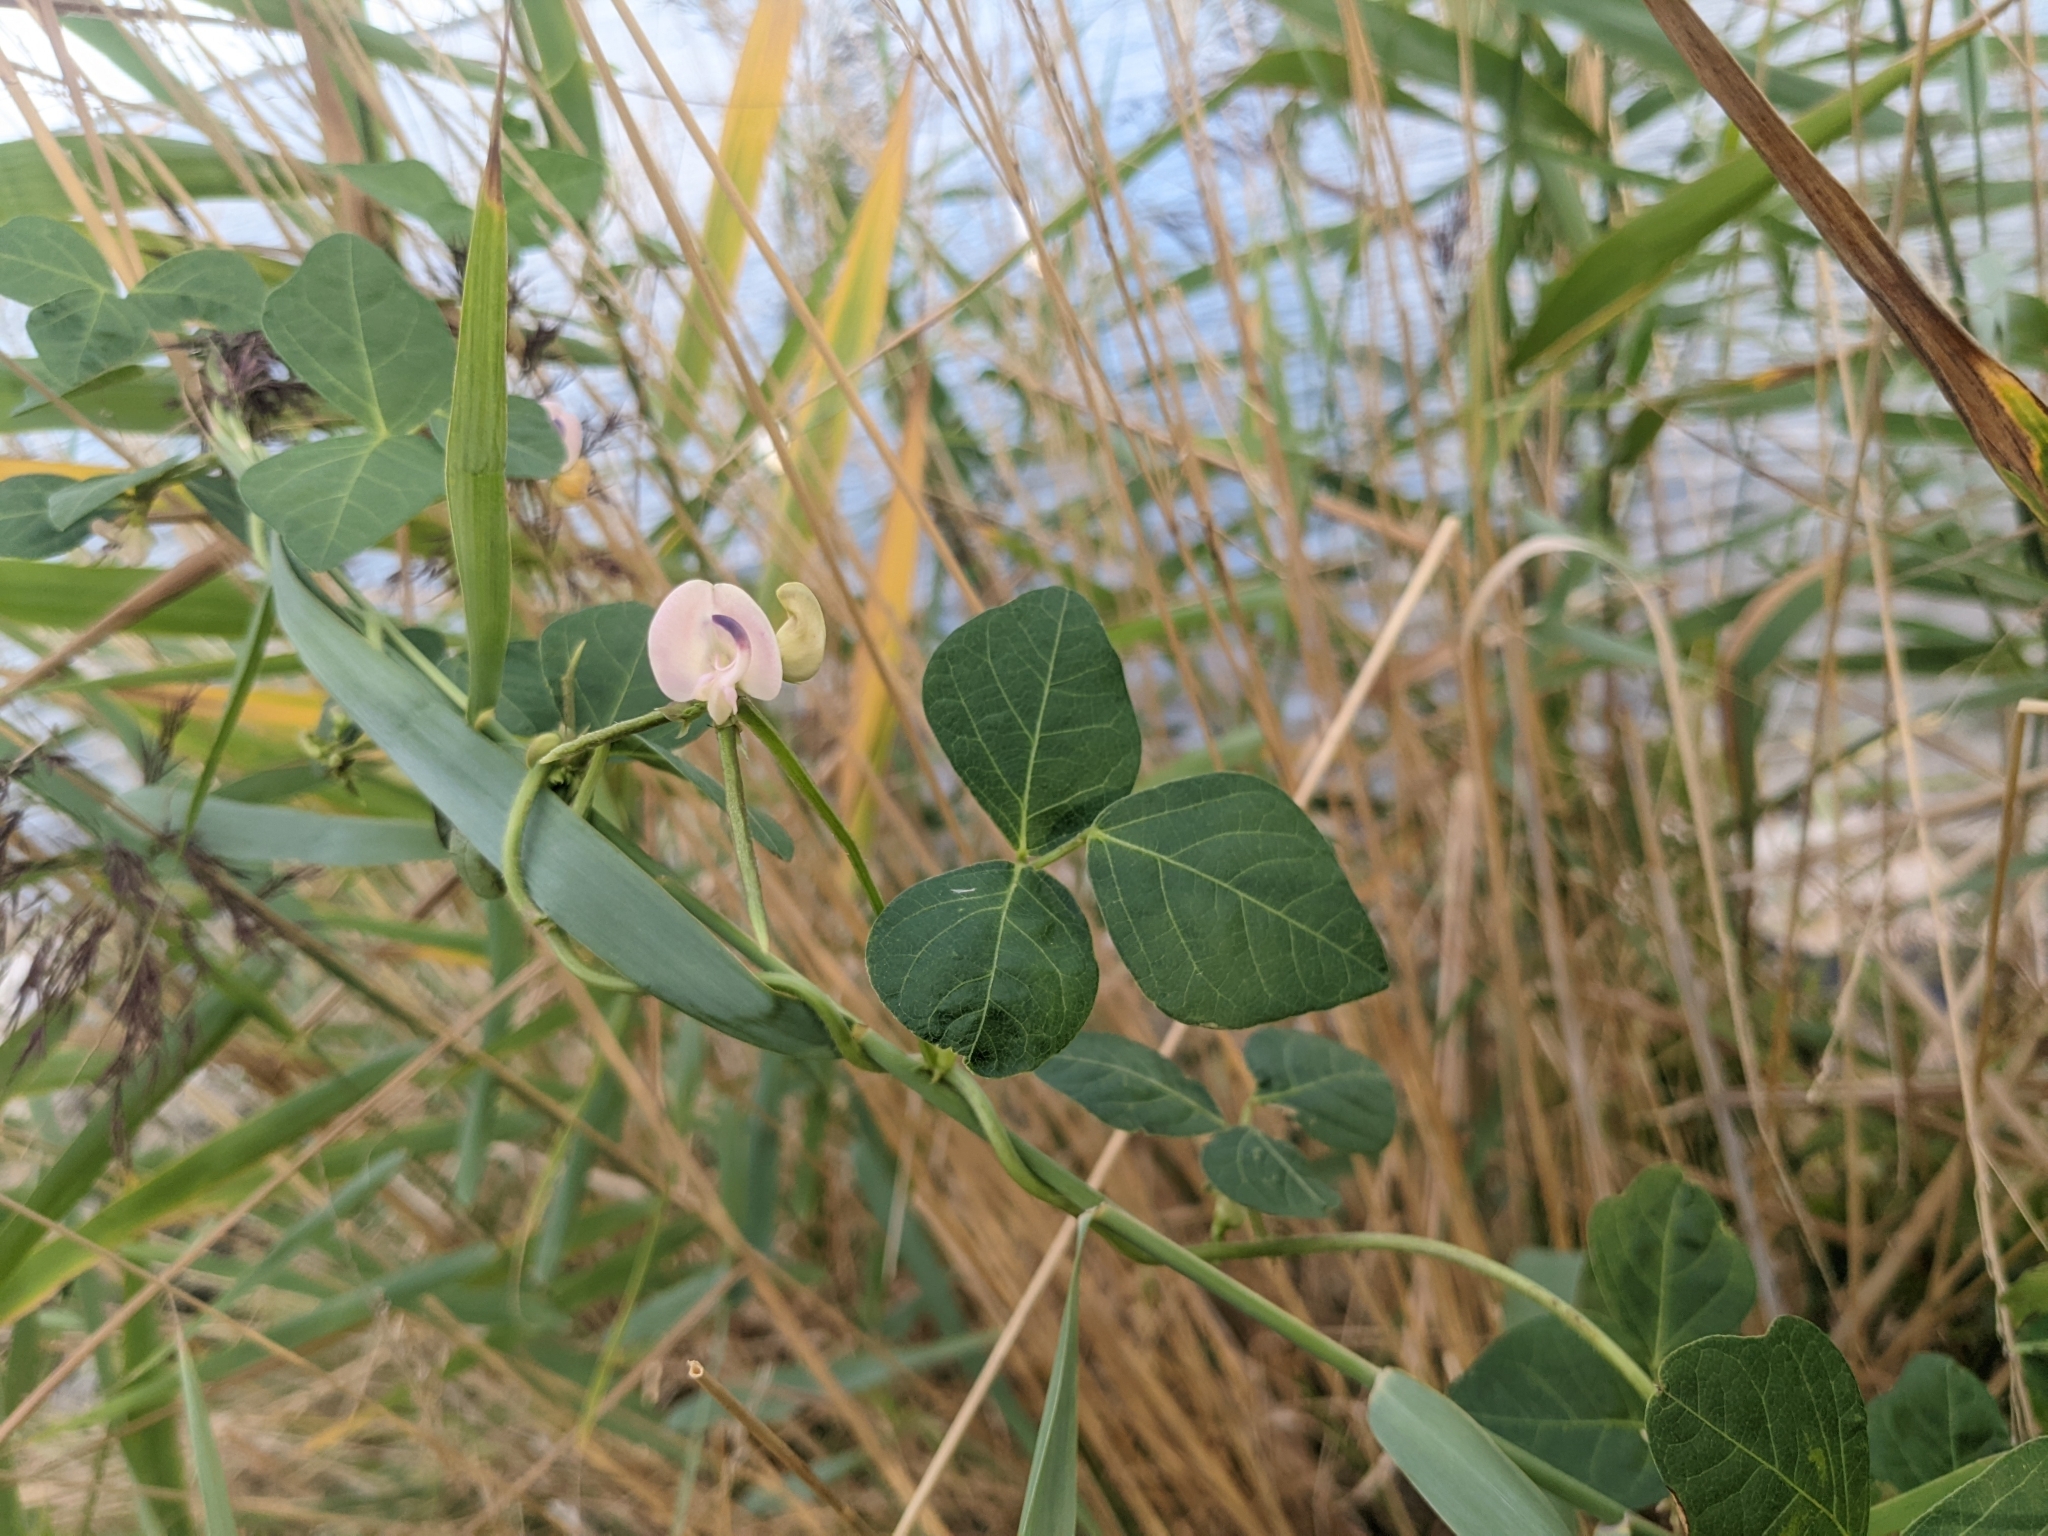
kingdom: Plantae
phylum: Tracheophyta
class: Magnoliopsida
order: Fabales
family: Fabaceae
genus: Strophostyles
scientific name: Strophostyles helvola
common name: Trailing wild bean
